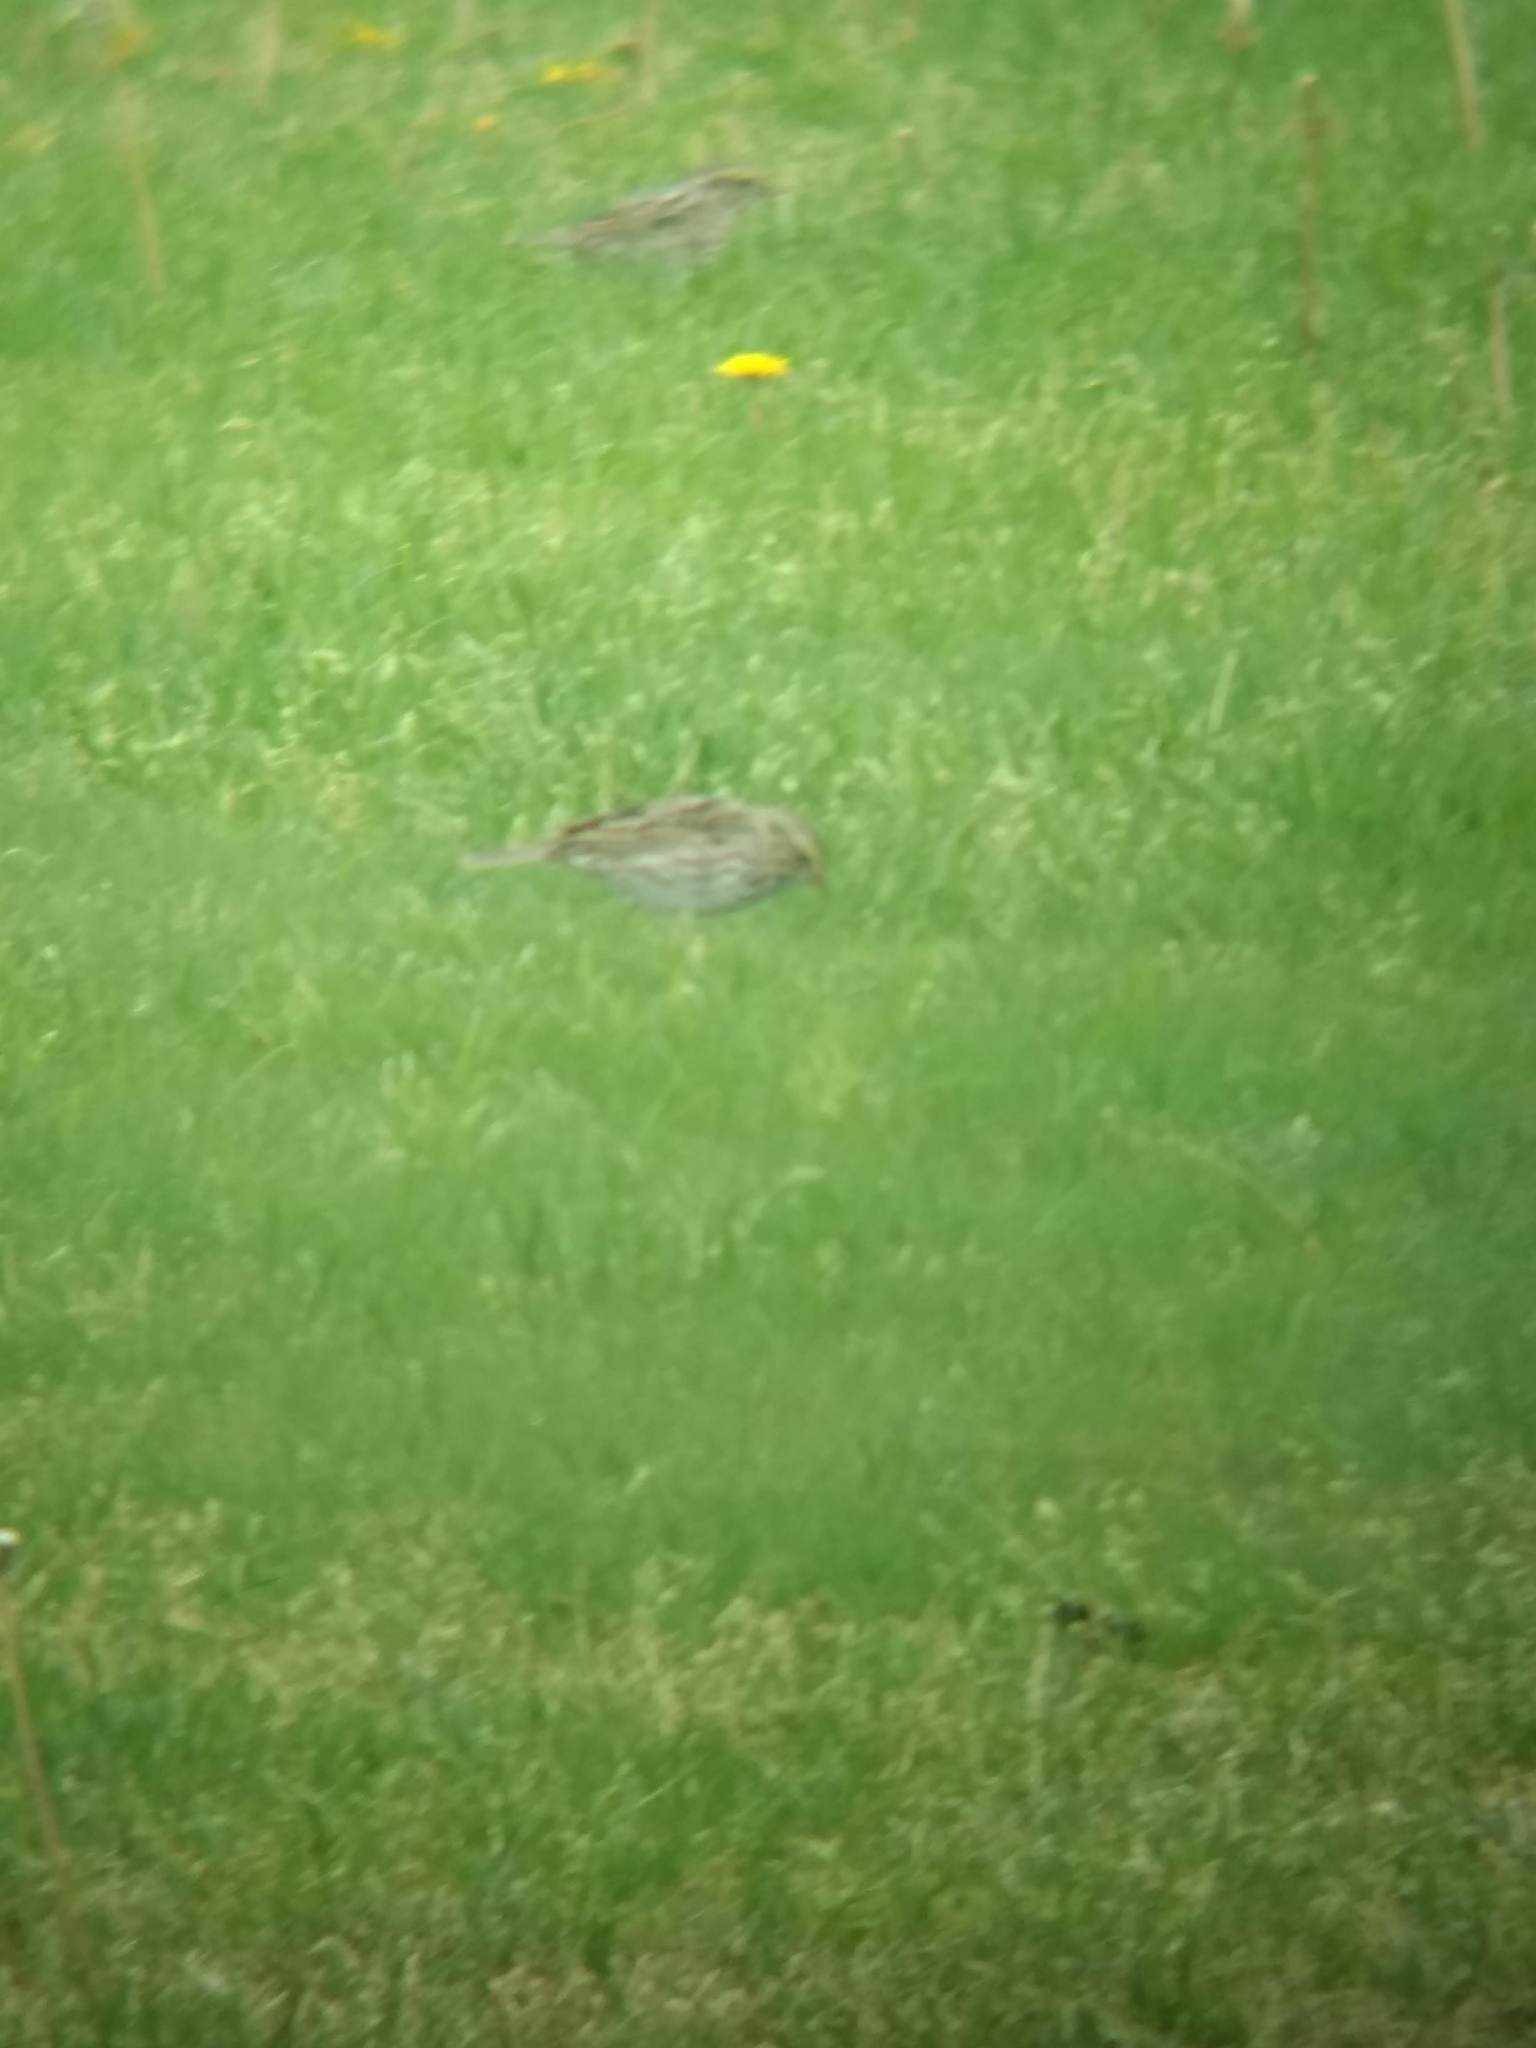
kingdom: Animalia
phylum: Chordata
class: Aves
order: Passeriformes
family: Passerellidae
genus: Passerculus
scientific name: Passerculus sandwichensis
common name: Savannah sparrow
